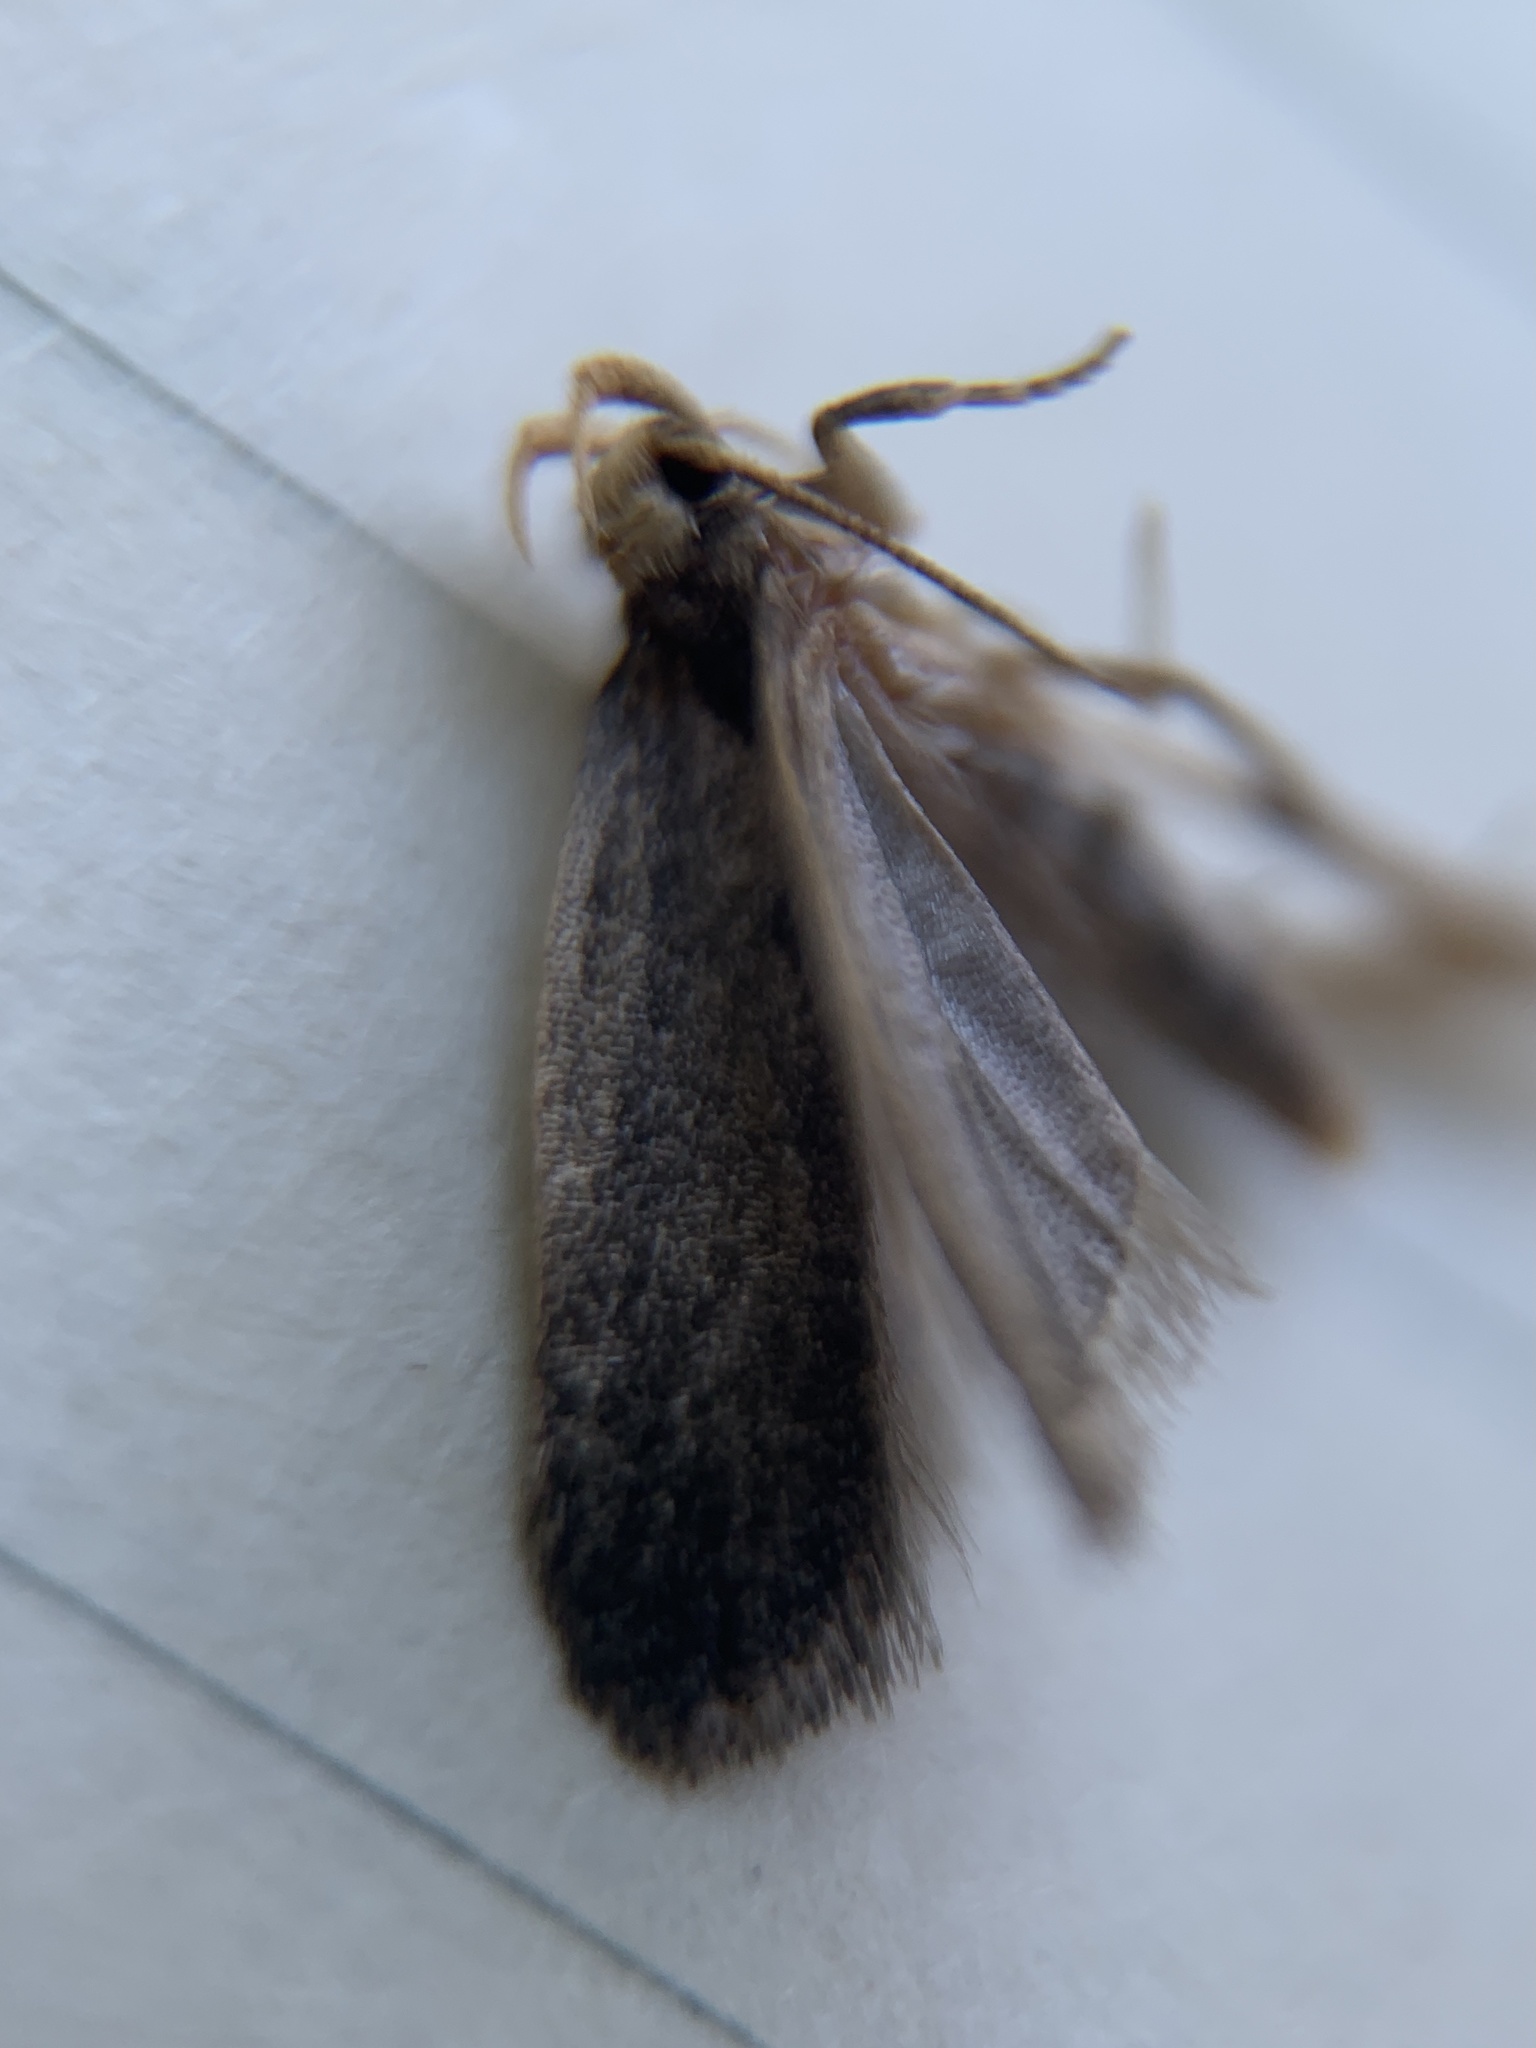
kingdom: Animalia
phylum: Arthropoda
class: Insecta
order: Lepidoptera
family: Autostichidae
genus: Glyphidocera
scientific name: Glyphidocera lithodoxa
